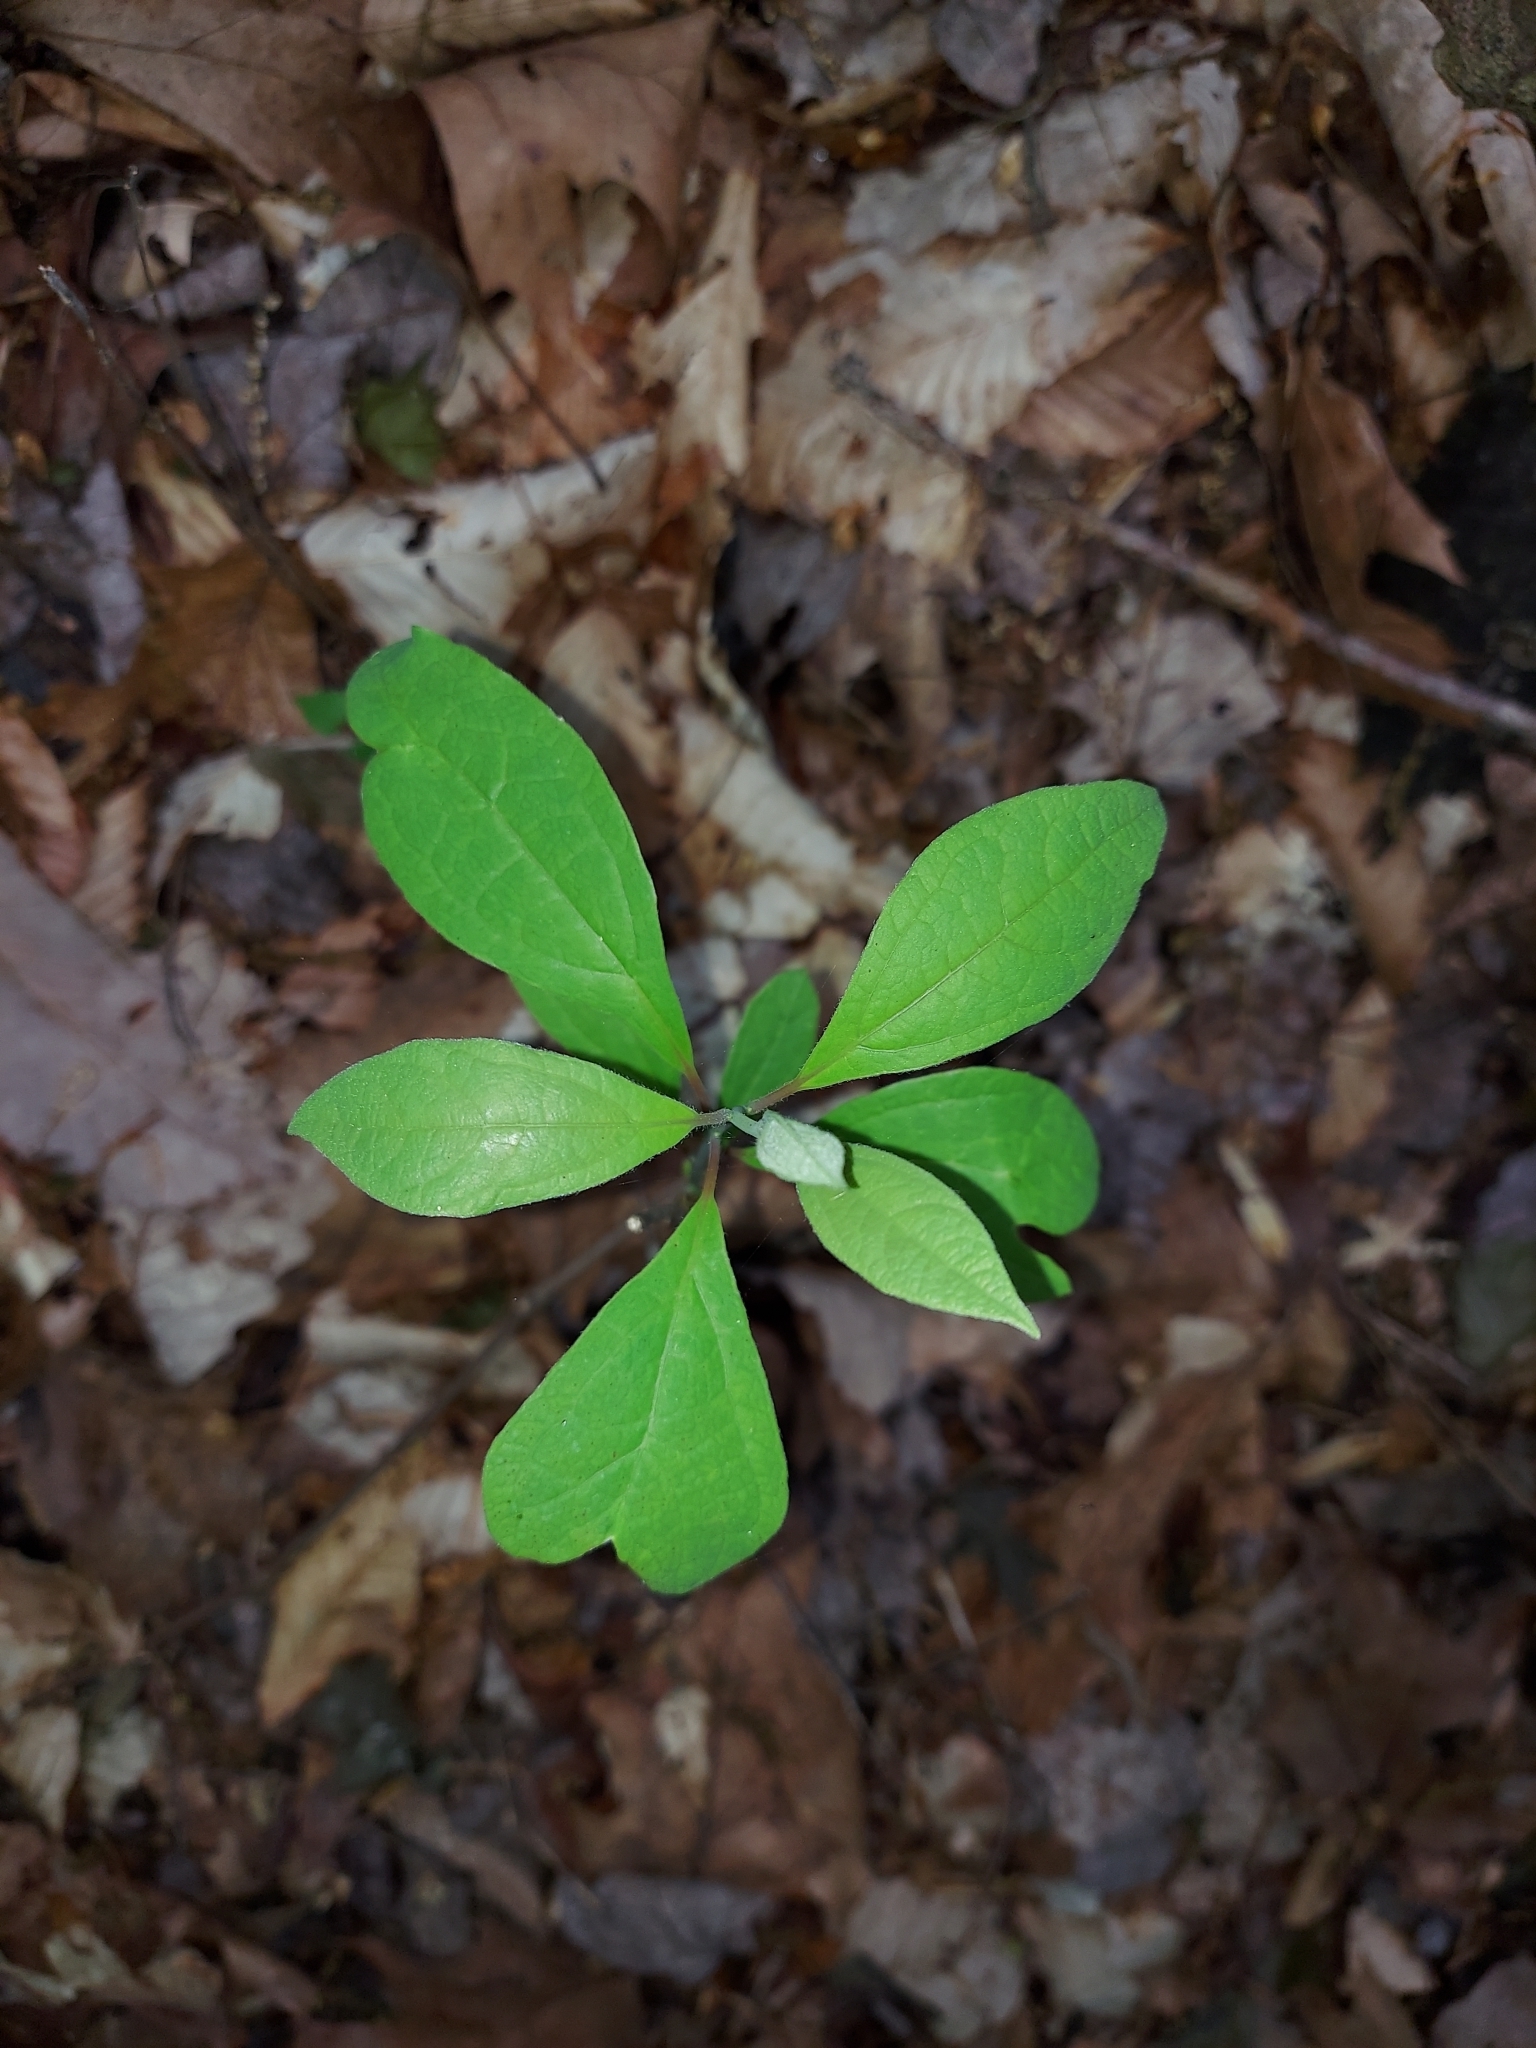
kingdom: Plantae
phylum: Tracheophyta
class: Magnoliopsida
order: Laurales
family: Lauraceae
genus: Sassafras
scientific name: Sassafras albidum
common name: Sassafras
